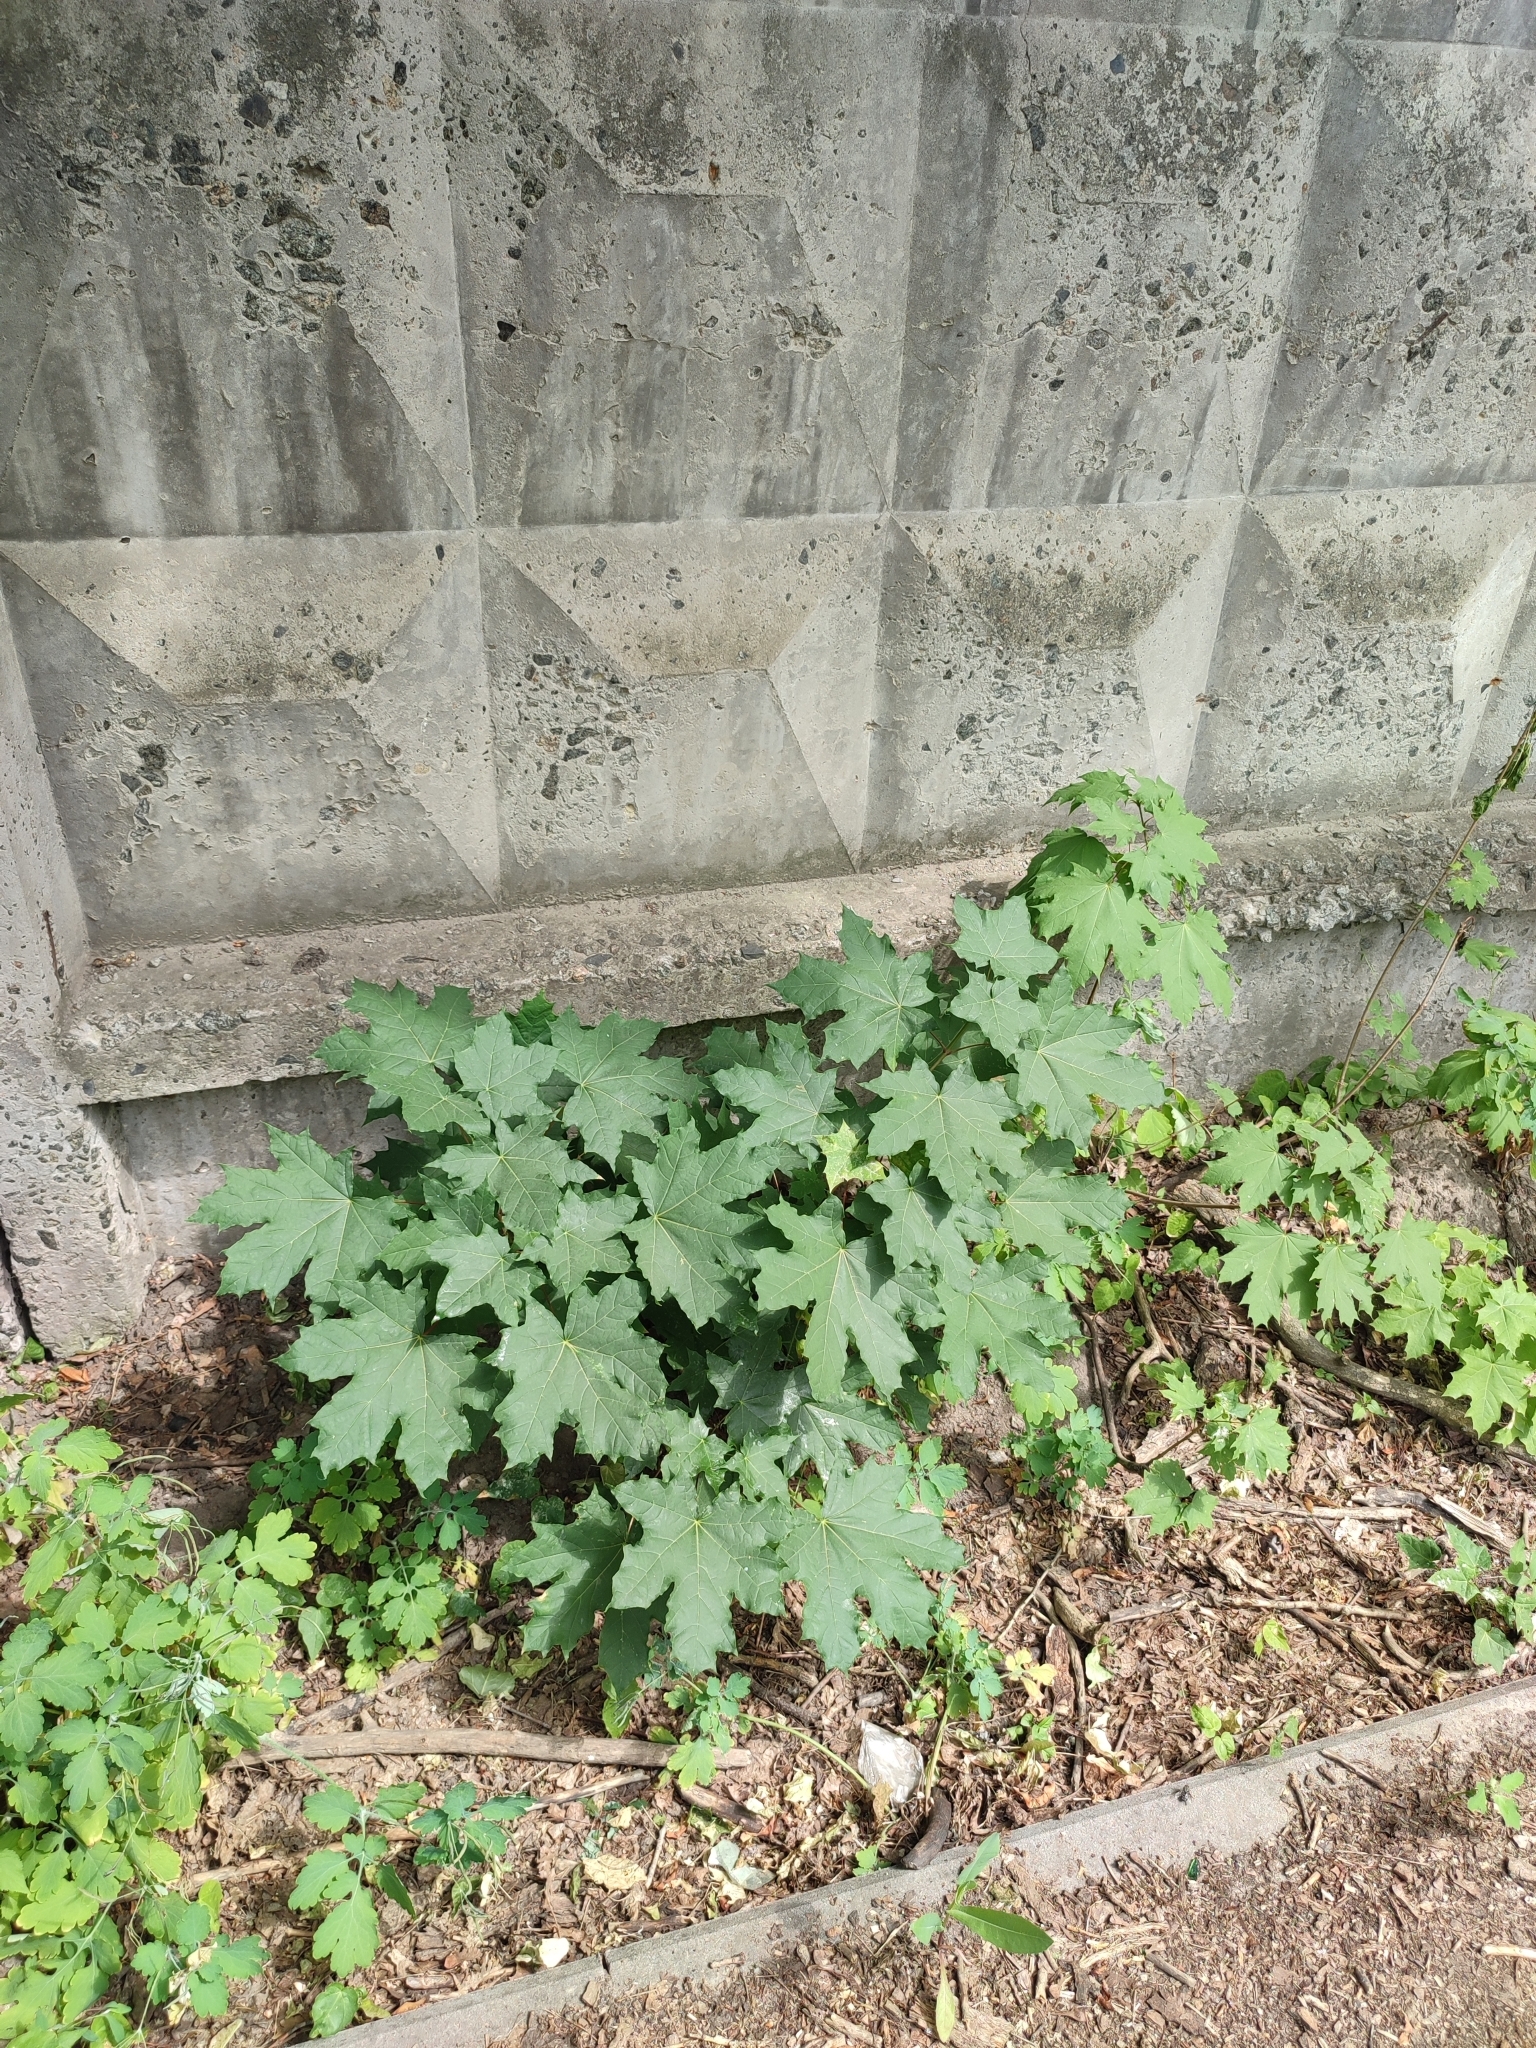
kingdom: Plantae
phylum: Tracheophyta
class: Magnoliopsida
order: Sapindales
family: Sapindaceae
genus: Acer
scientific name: Acer platanoides
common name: Norway maple
